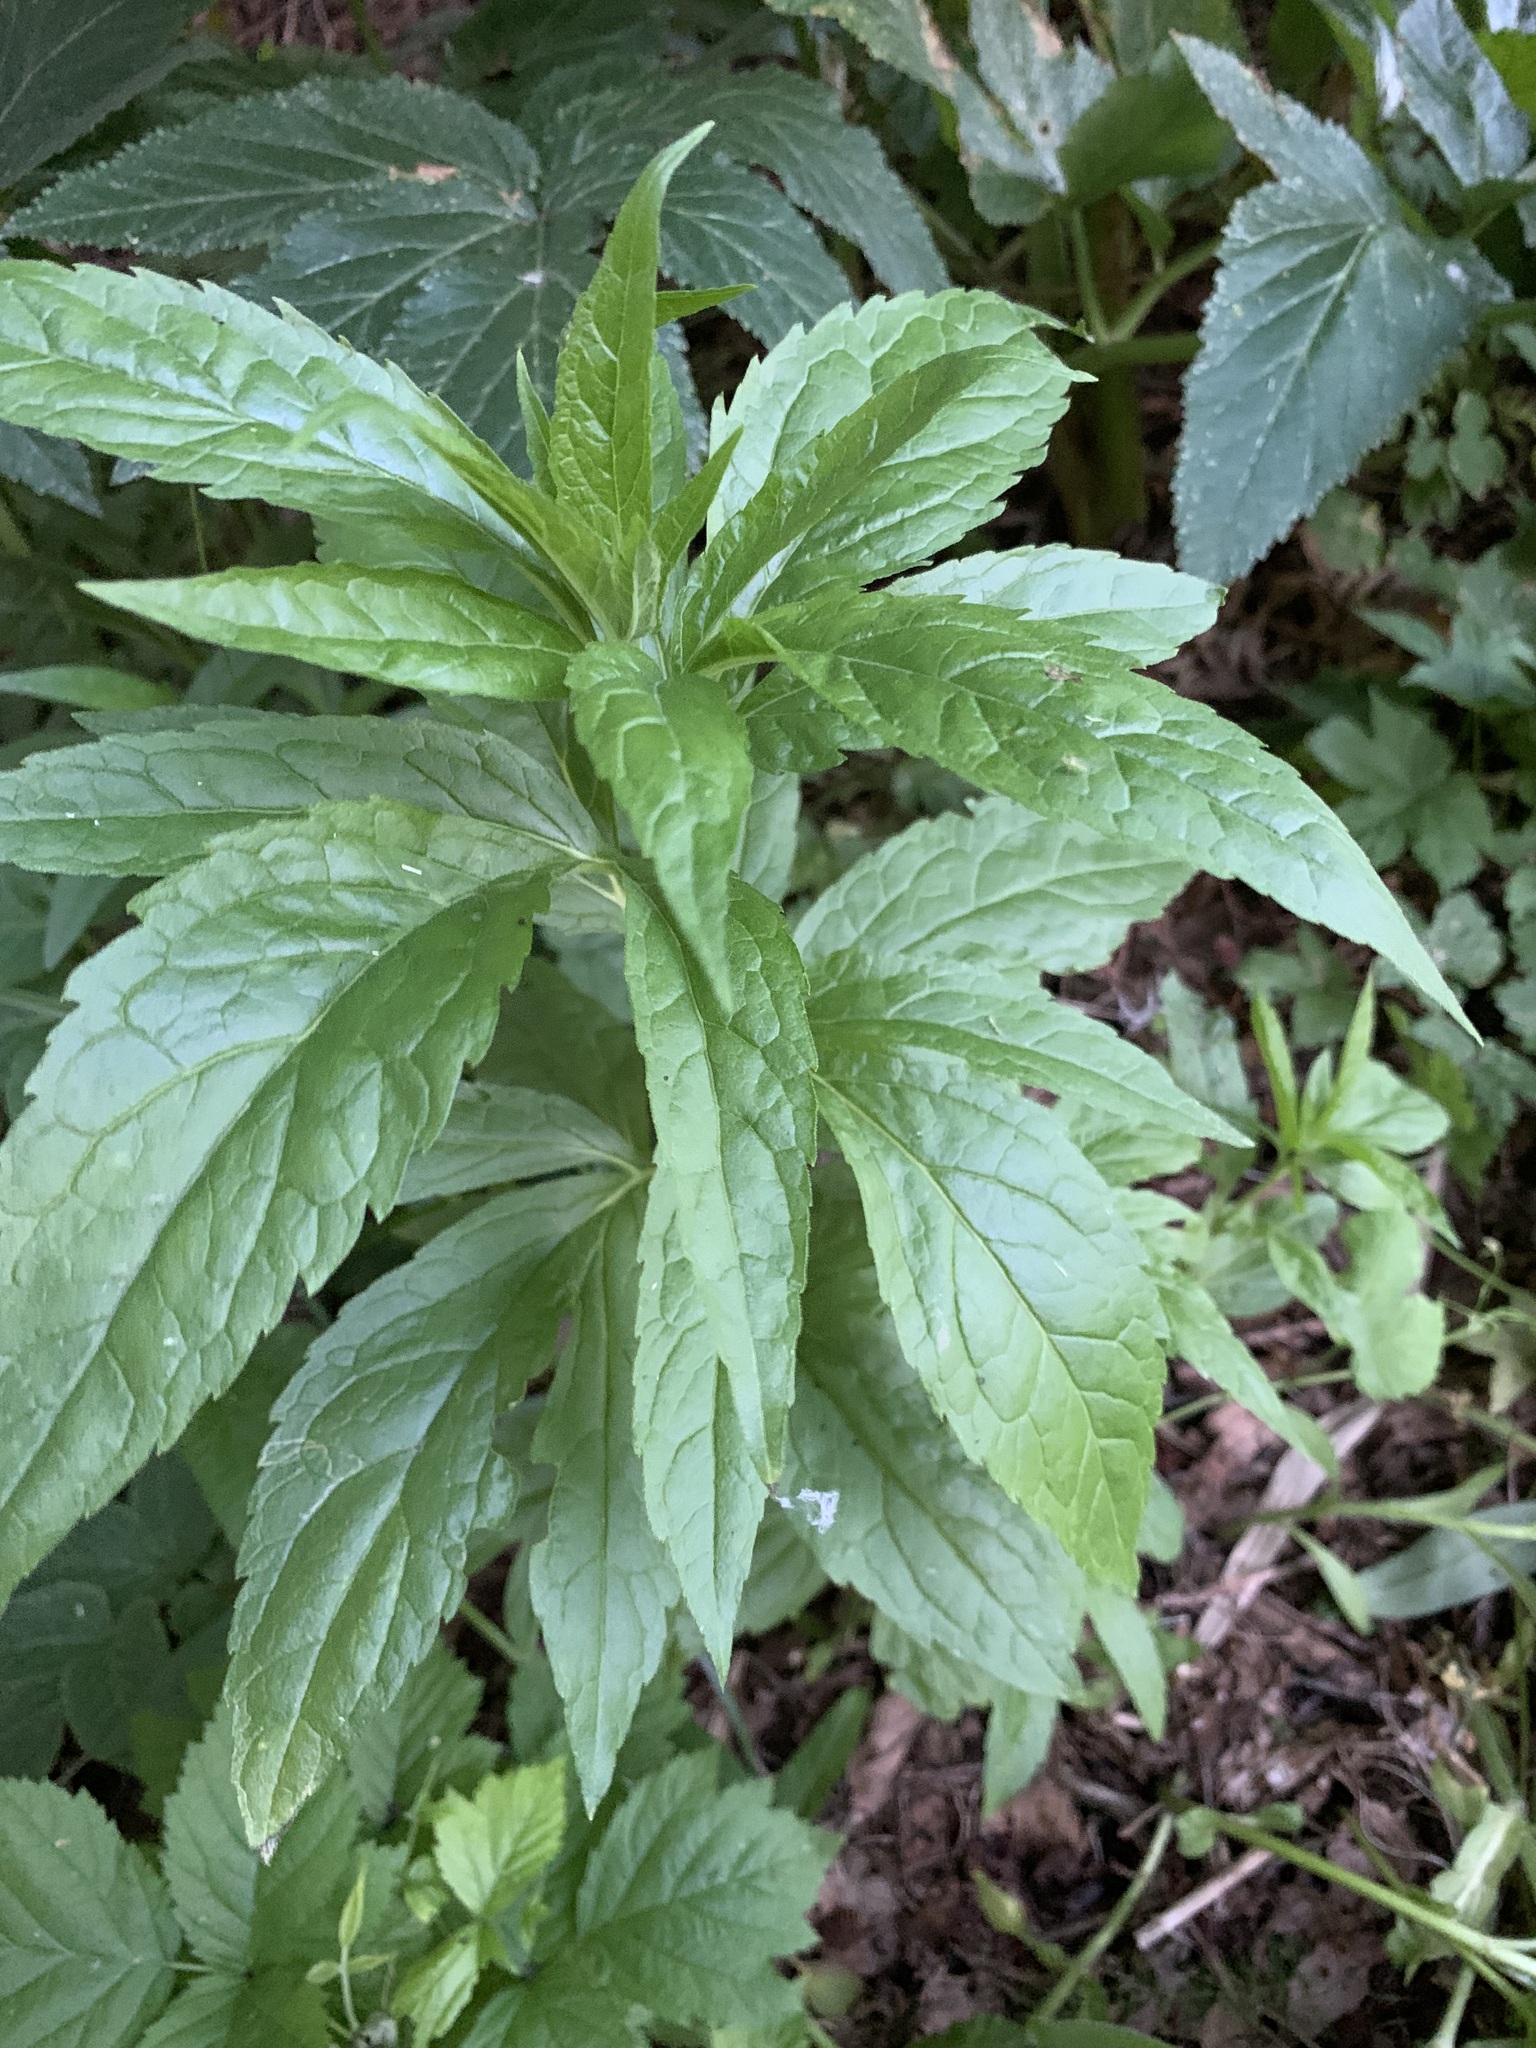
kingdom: Plantae
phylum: Tracheophyta
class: Magnoliopsida
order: Asterales
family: Asteraceae
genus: Eupatorium
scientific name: Eupatorium cannabinum
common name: Hemp-agrimony
